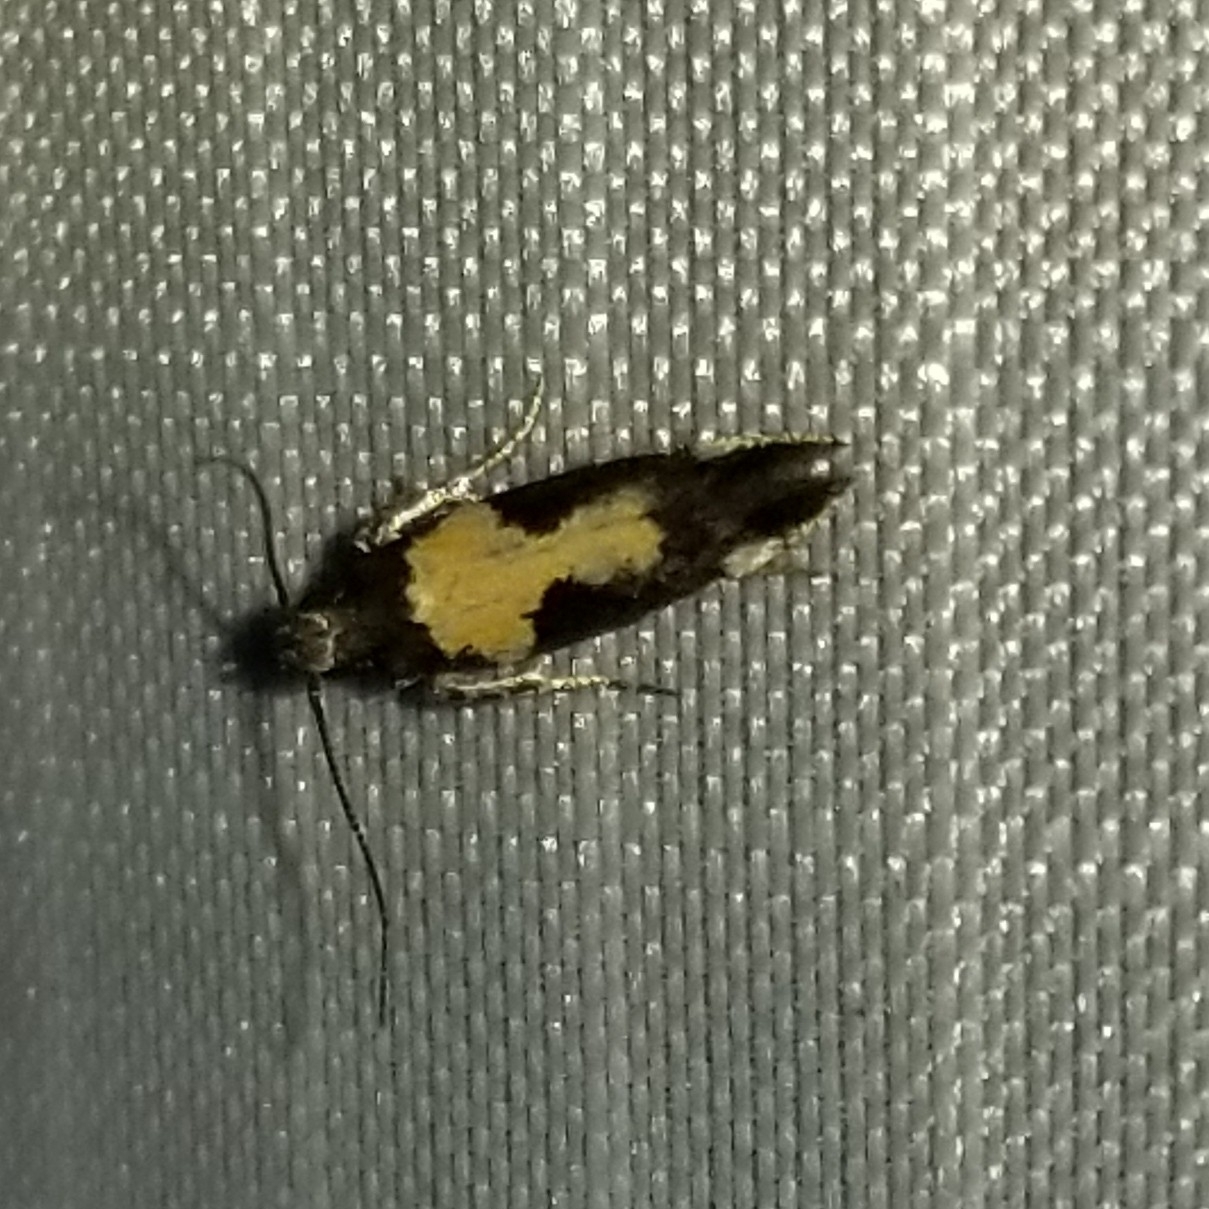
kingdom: Animalia
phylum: Arthropoda
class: Insecta
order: Lepidoptera
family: Gelechiidae
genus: Stegasta
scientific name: Stegasta bosqueella
